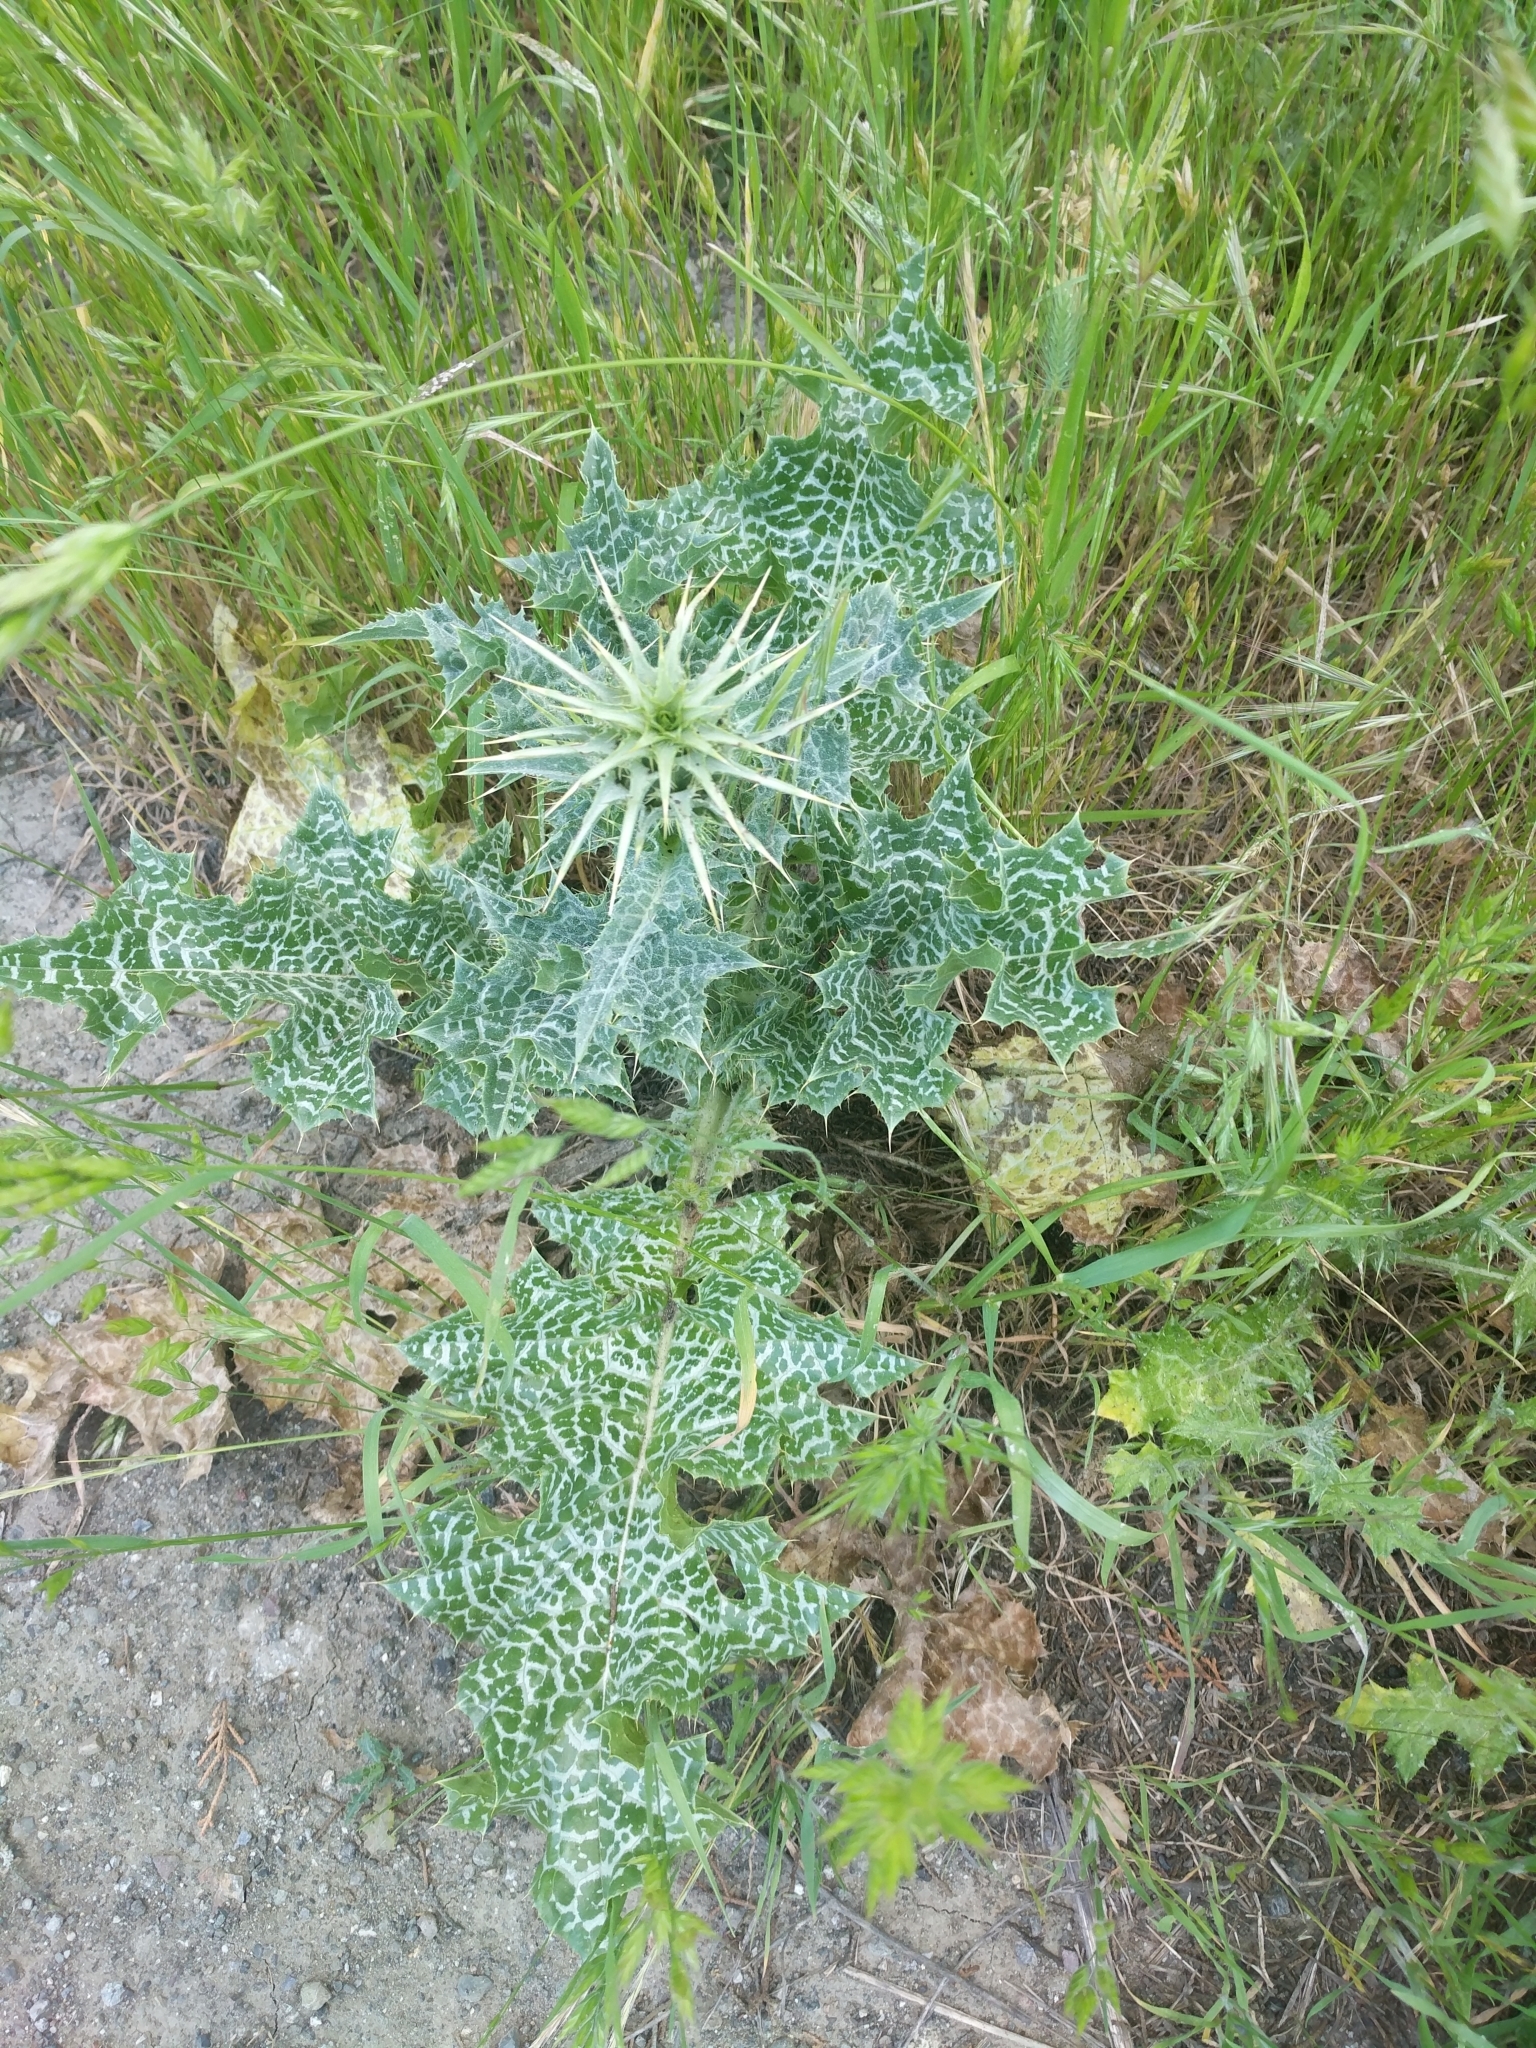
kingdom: Plantae
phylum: Tracheophyta
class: Magnoliopsida
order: Asterales
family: Asteraceae
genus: Silybum
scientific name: Silybum marianum
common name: Milk thistle
